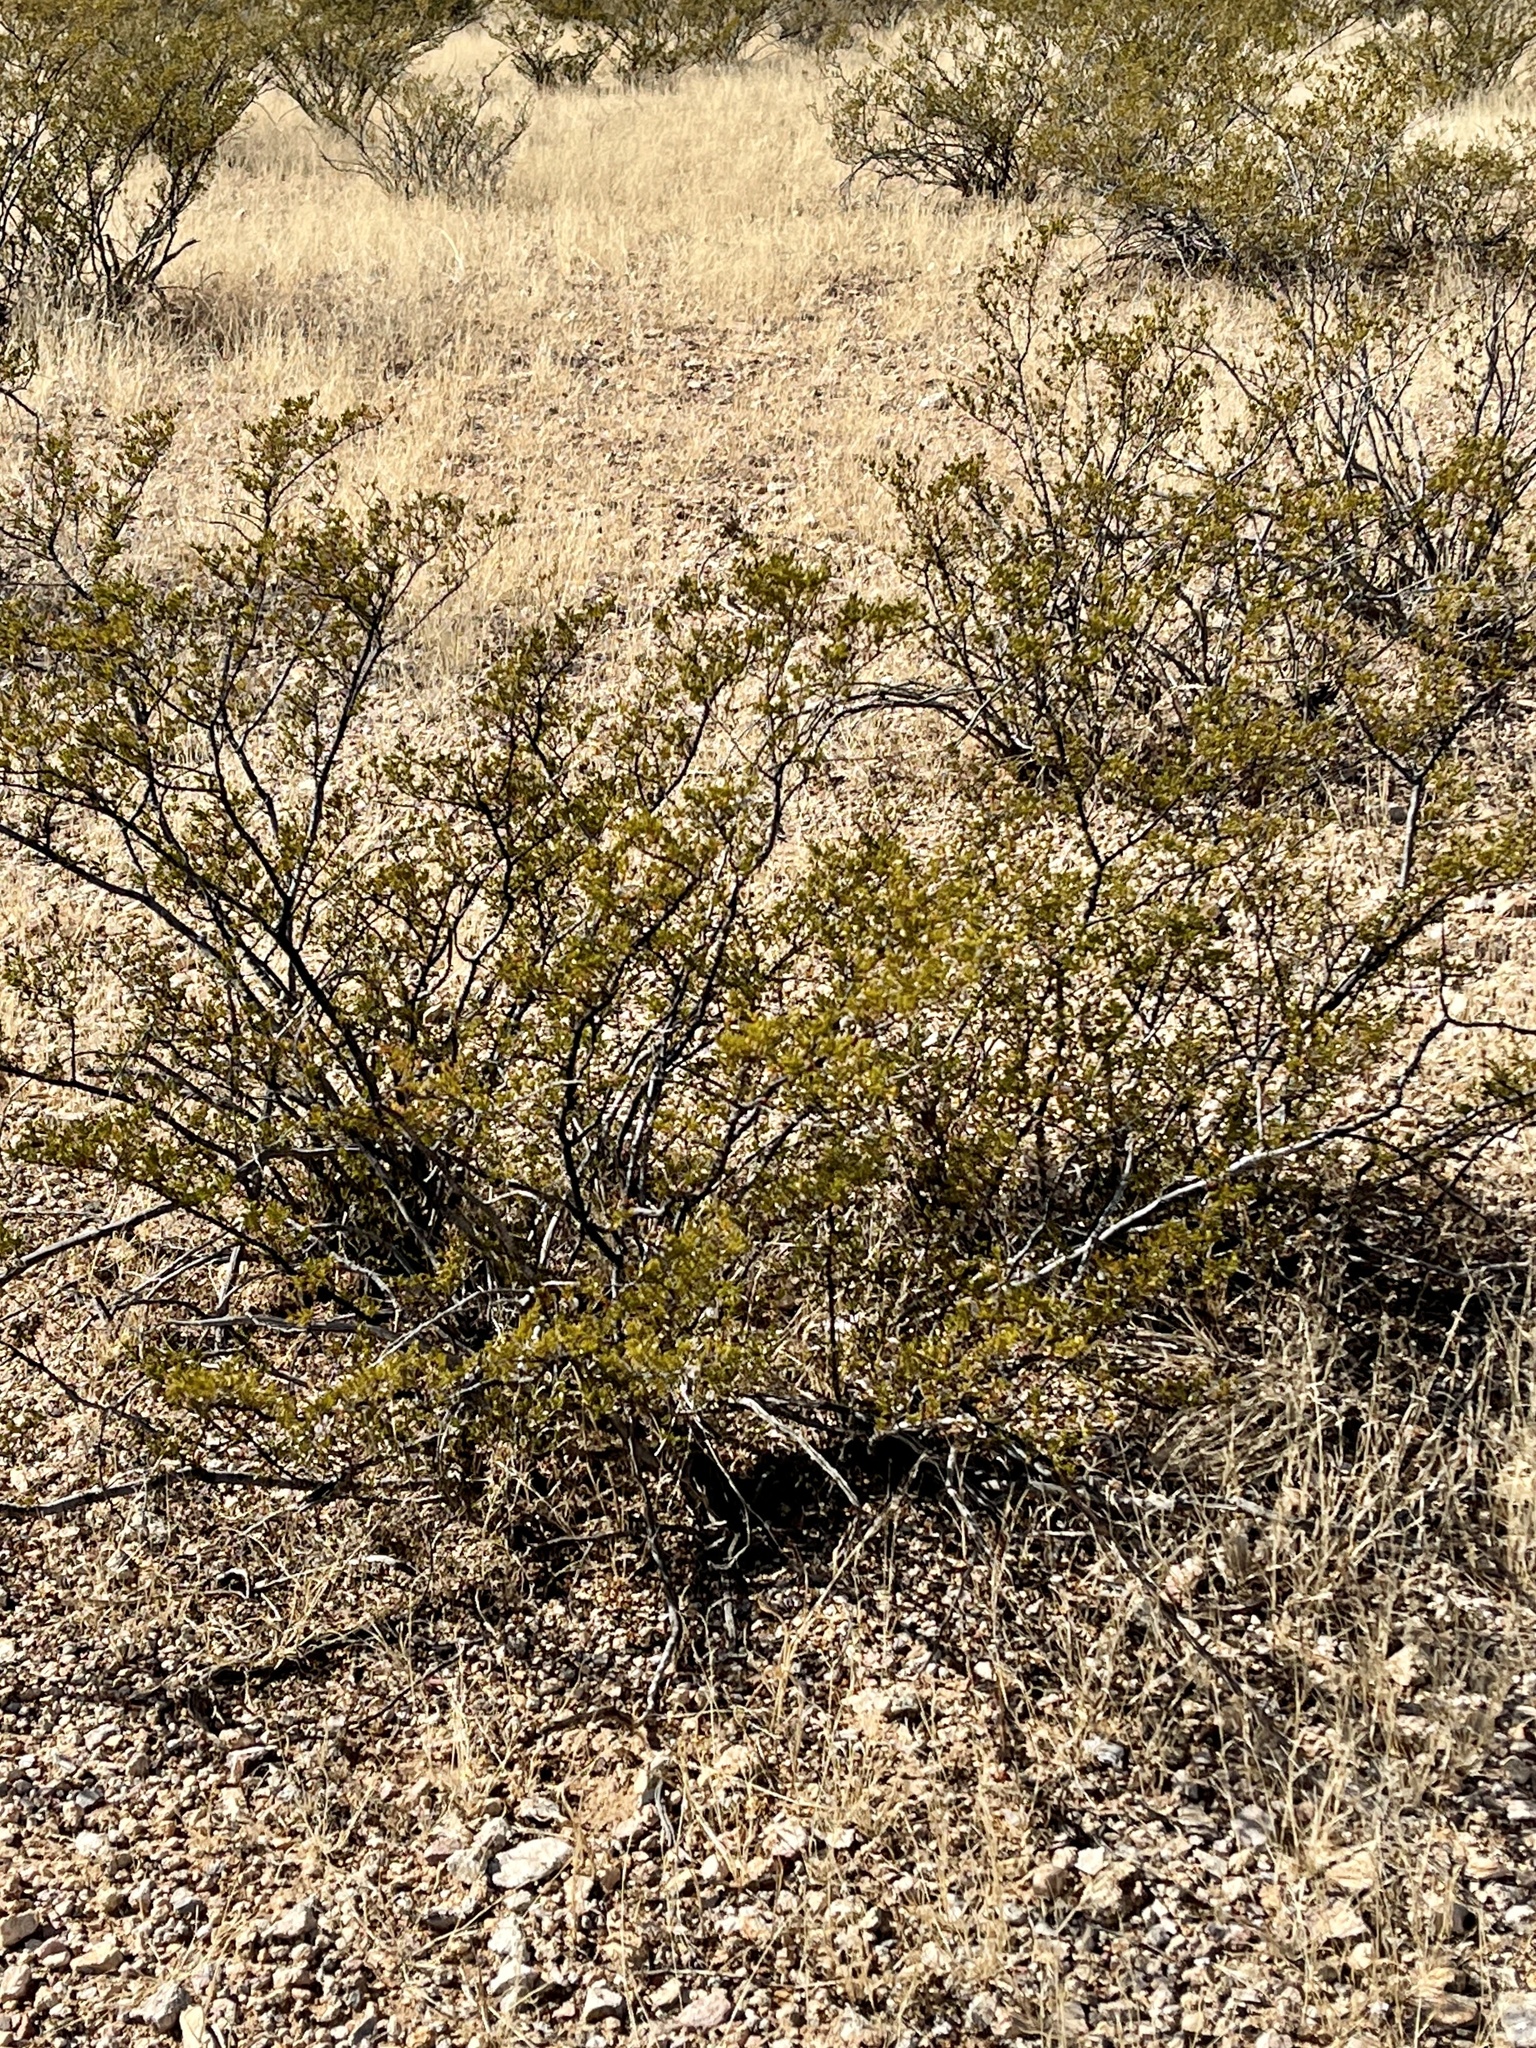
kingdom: Plantae
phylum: Tracheophyta
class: Magnoliopsida
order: Zygophyllales
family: Zygophyllaceae
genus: Larrea
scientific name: Larrea tridentata
